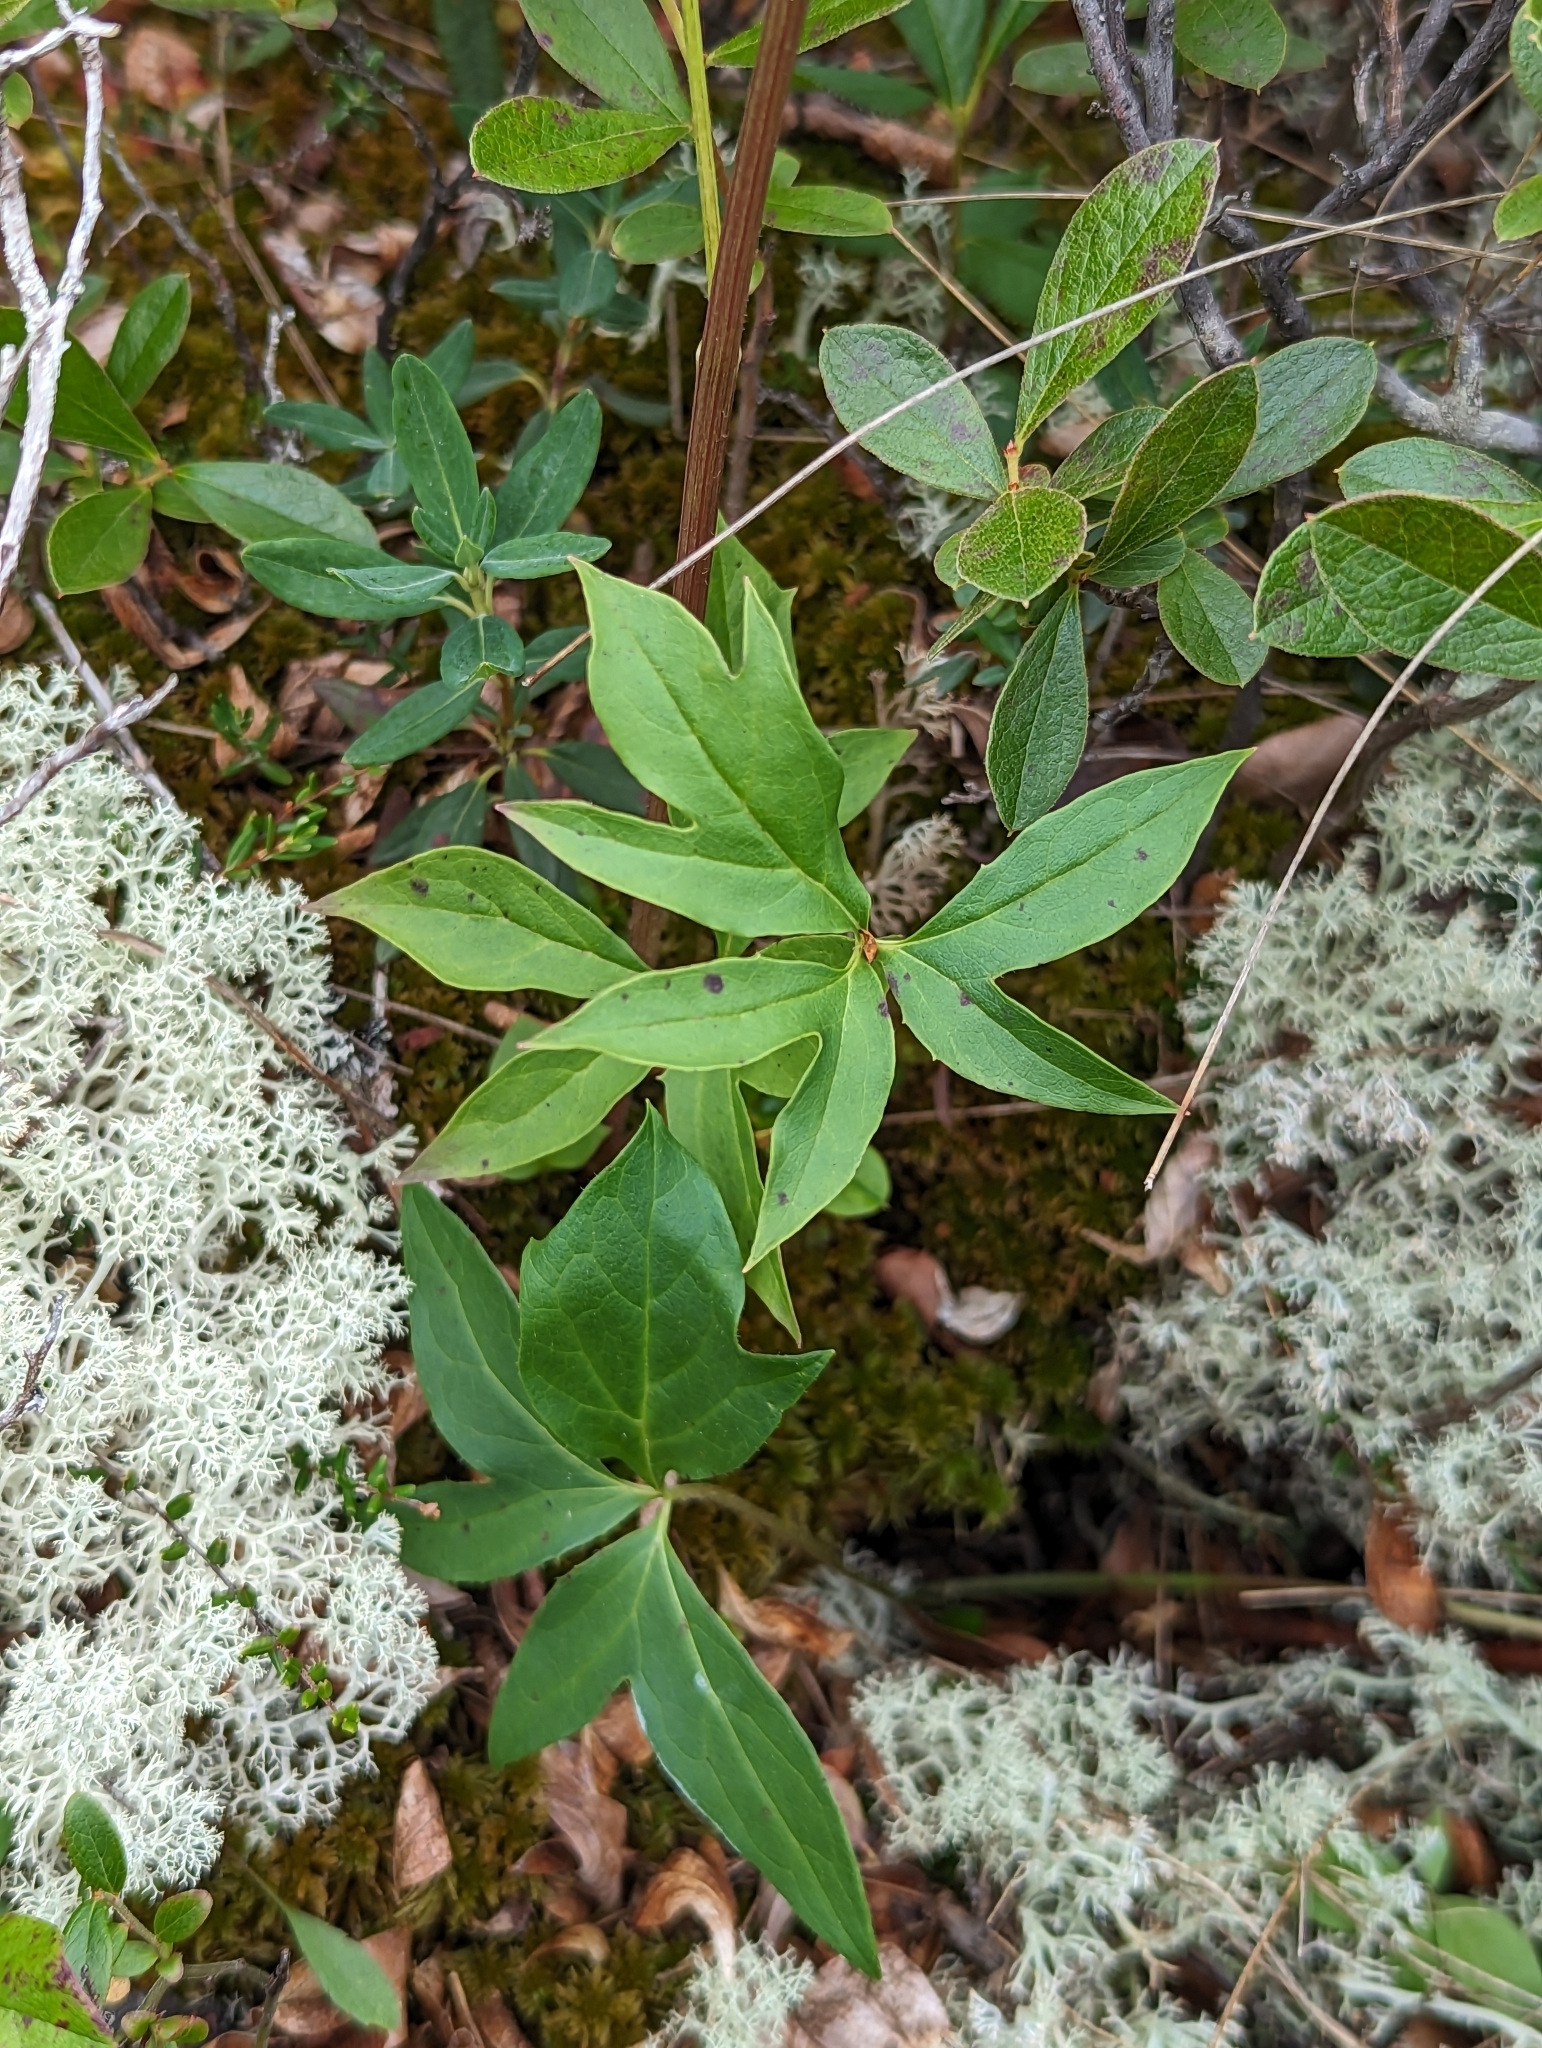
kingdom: Plantae
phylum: Tracheophyta
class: Magnoliopsida
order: Asterales
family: Asteraceae
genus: Nabalus
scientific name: Nabalus trifoliolatus
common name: Gall-of-the-earth
